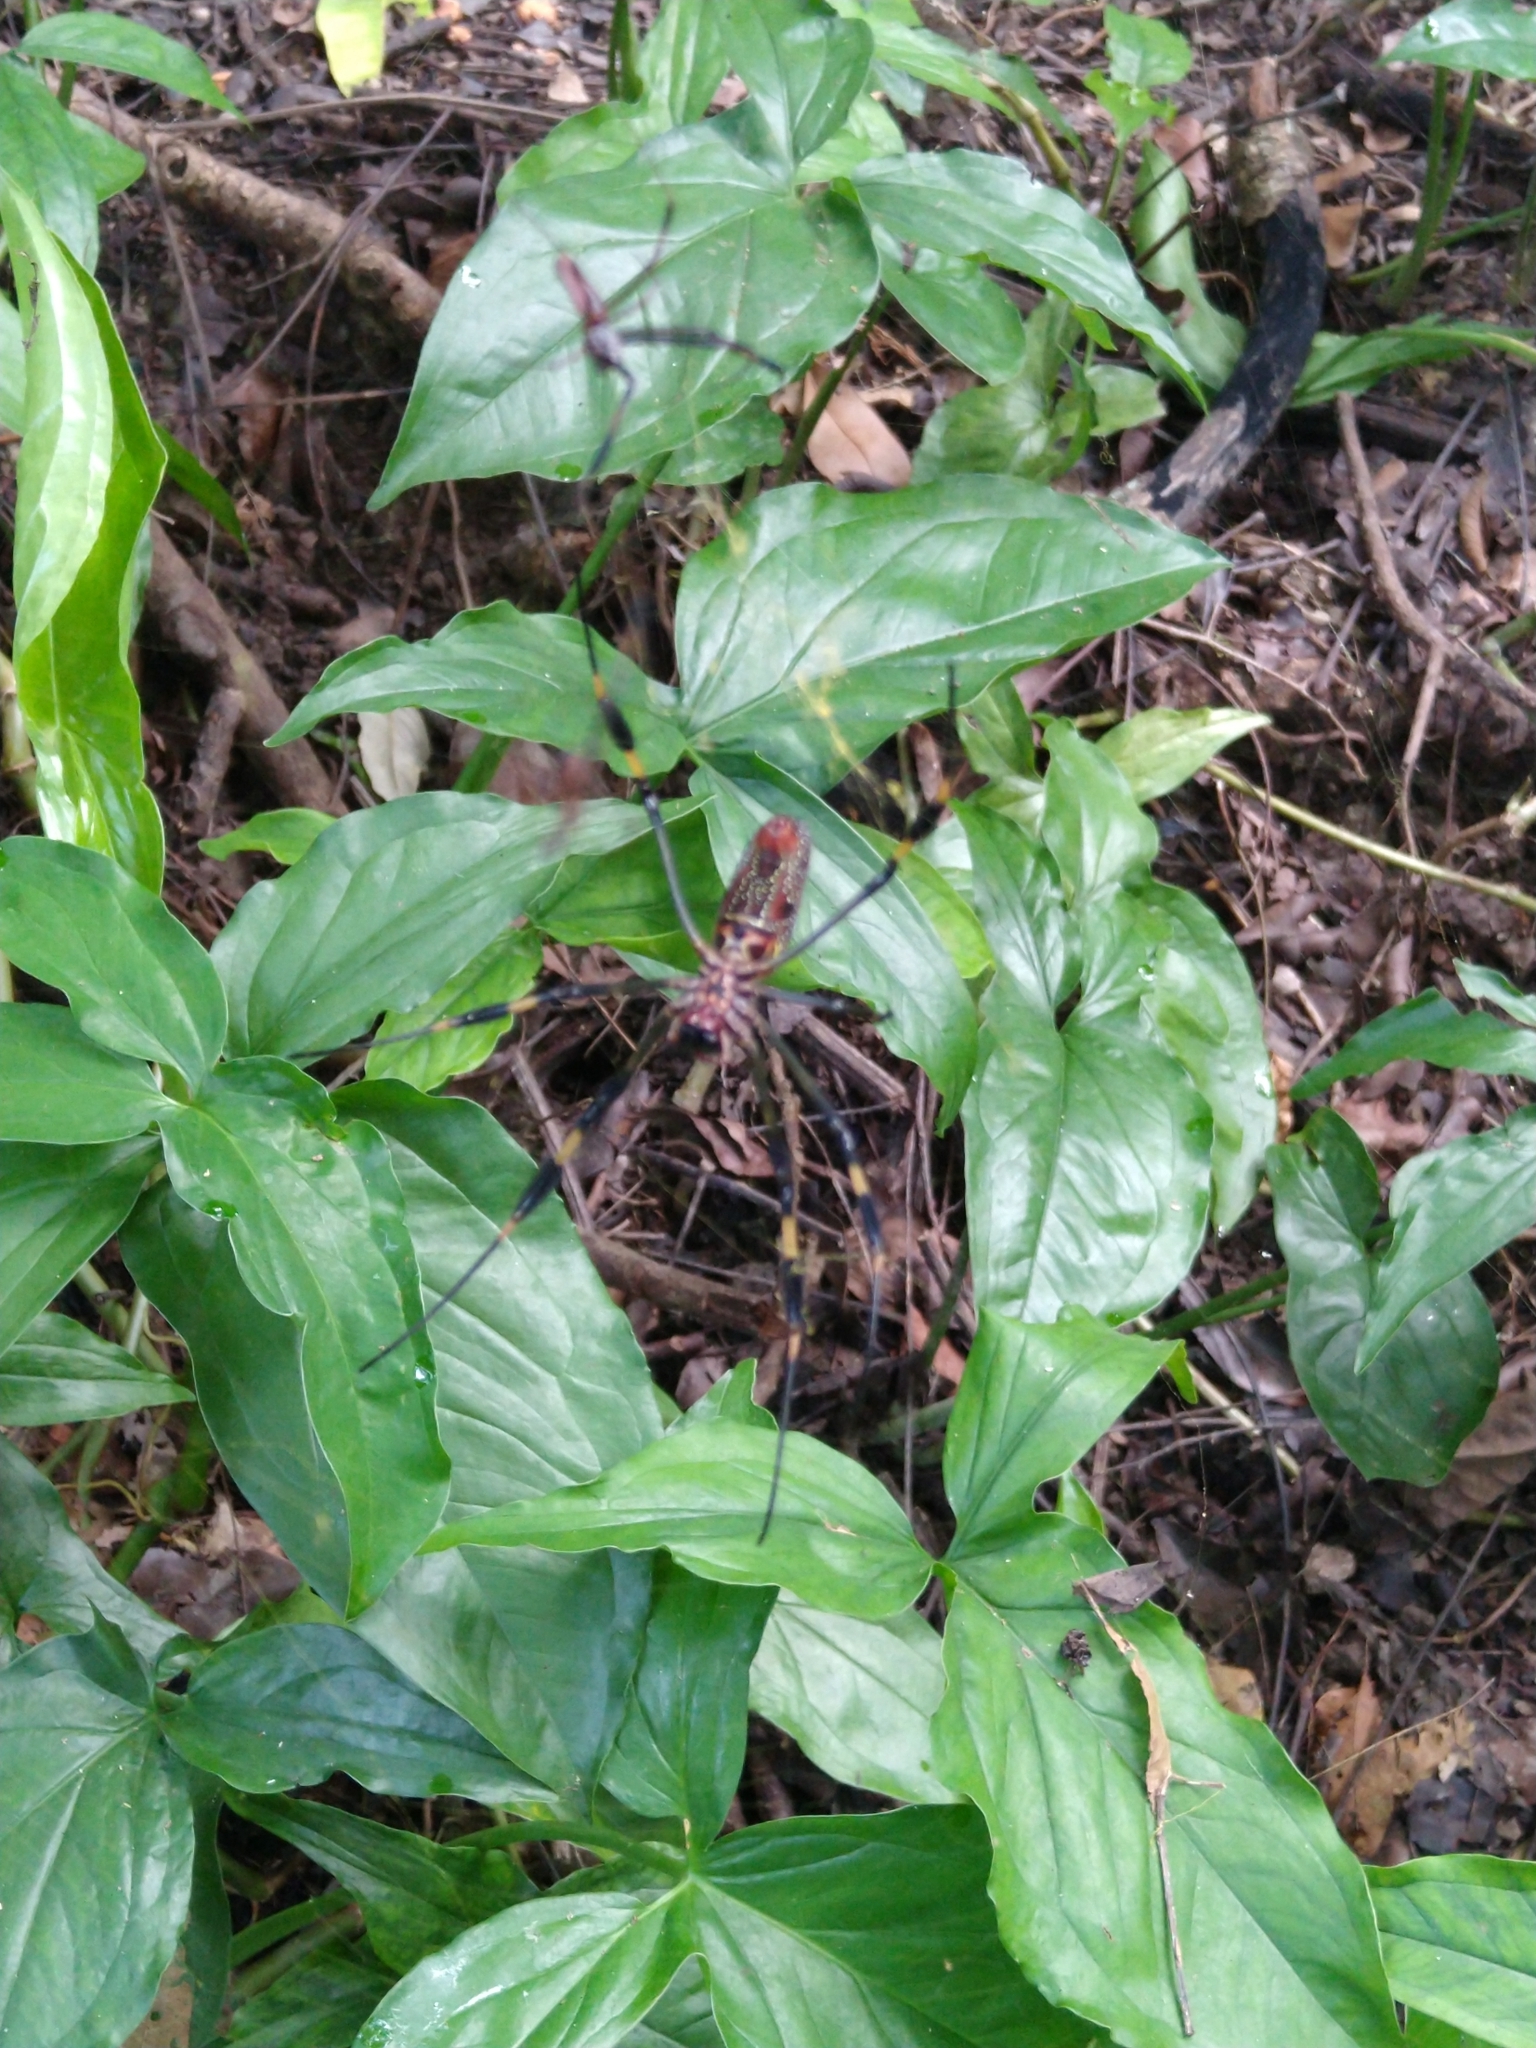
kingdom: Animalia
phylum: Arthropoda
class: Arachnida
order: Araneae
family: Araneidae
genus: Trichonephila
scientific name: Trichonephila clavipes
